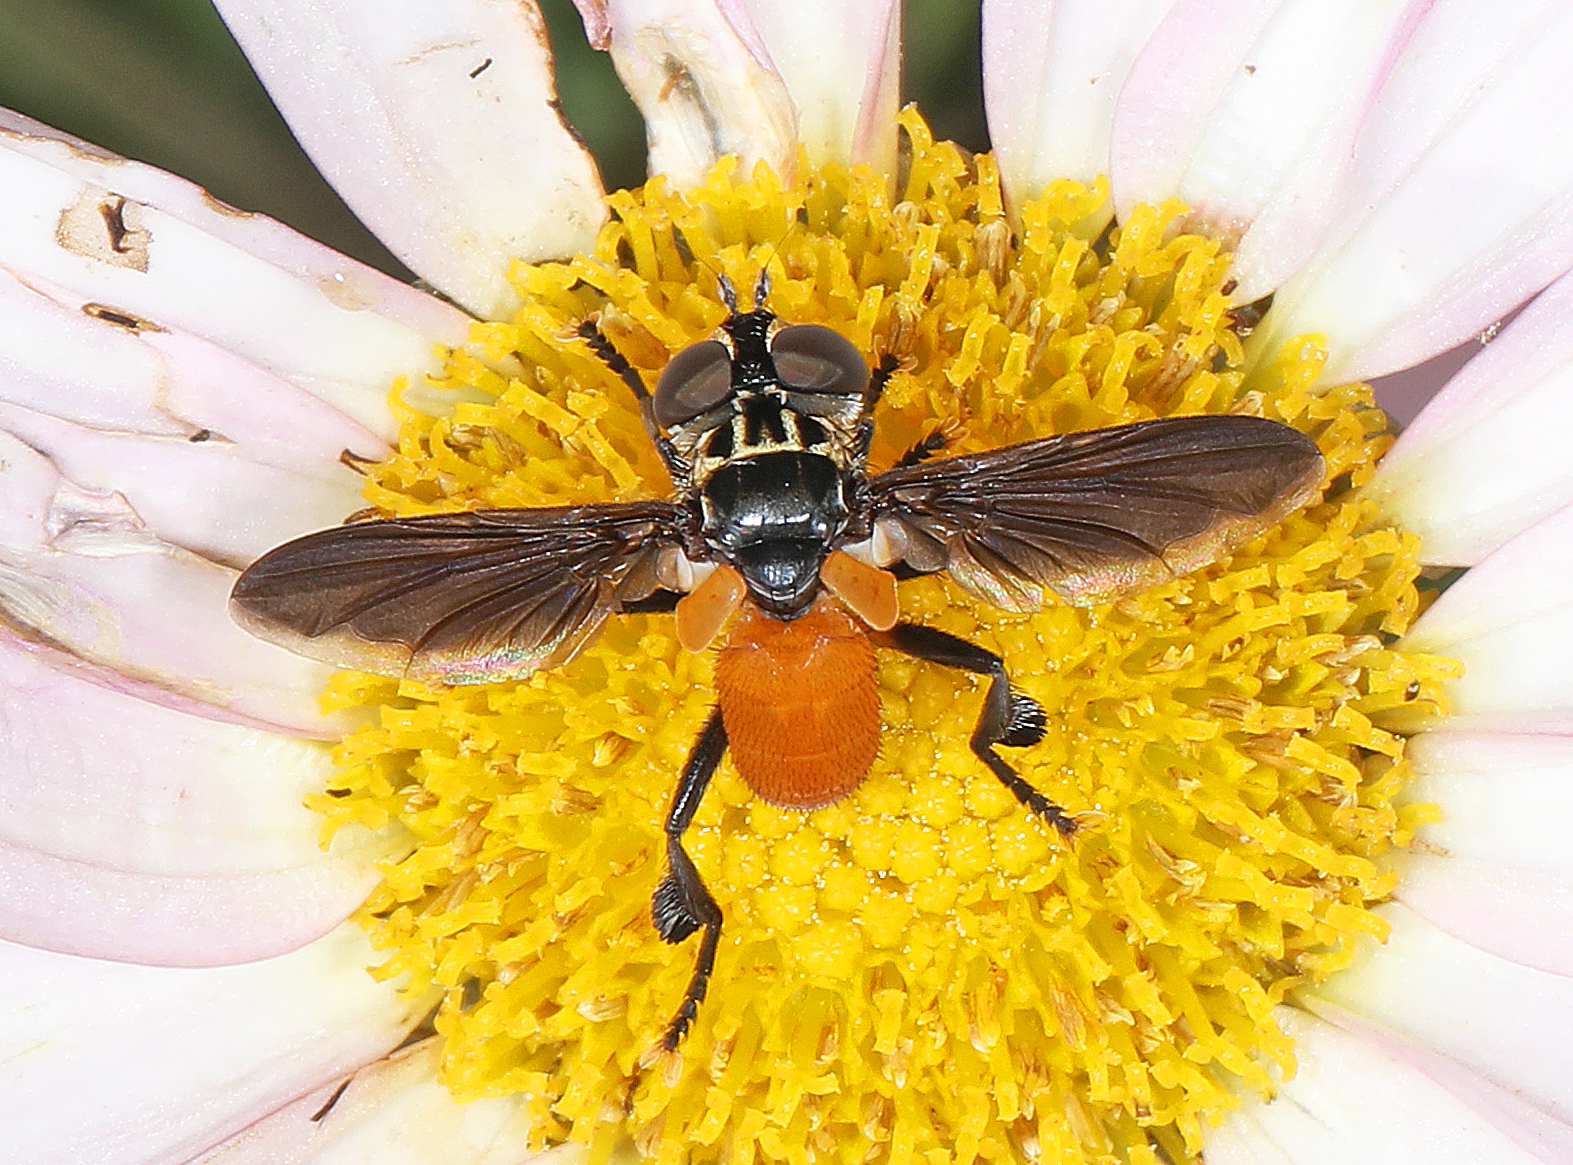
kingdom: Animalia
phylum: Arthropoda
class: Insecta
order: Diptera
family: Tachinidae
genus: Trichopoda
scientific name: Trichopoda pennipes
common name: Tachinid fly
